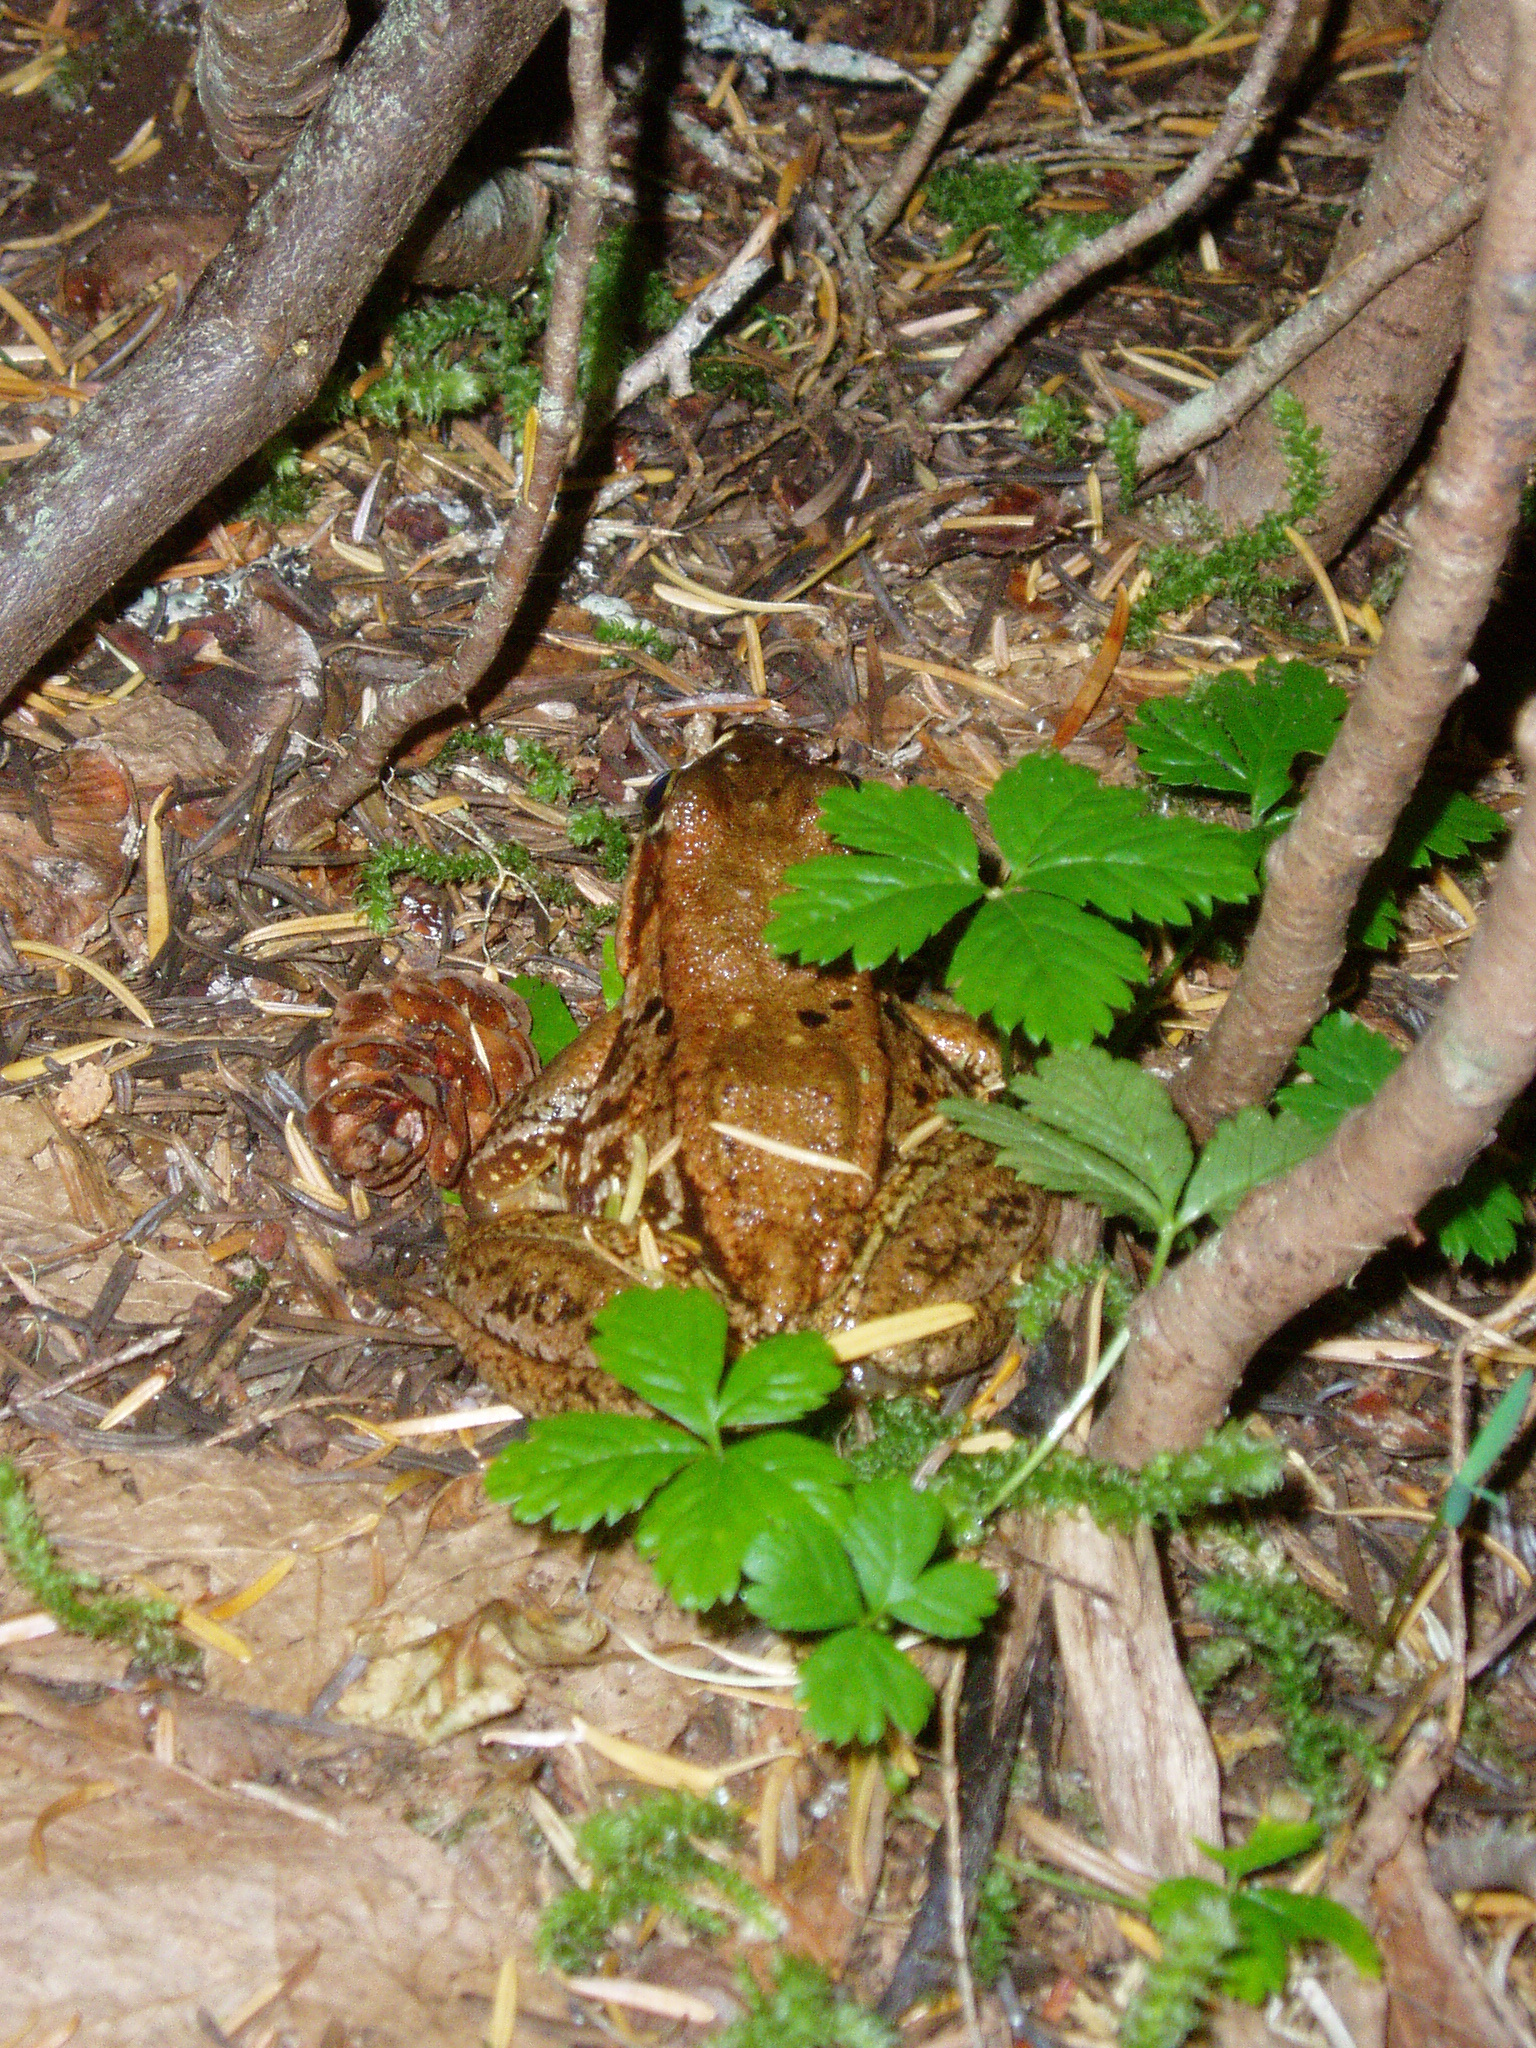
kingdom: Animalia
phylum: Chordata
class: Amphibia
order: Anura
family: Ranidae
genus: Rana
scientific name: Rana cascadae
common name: Cascades frog
